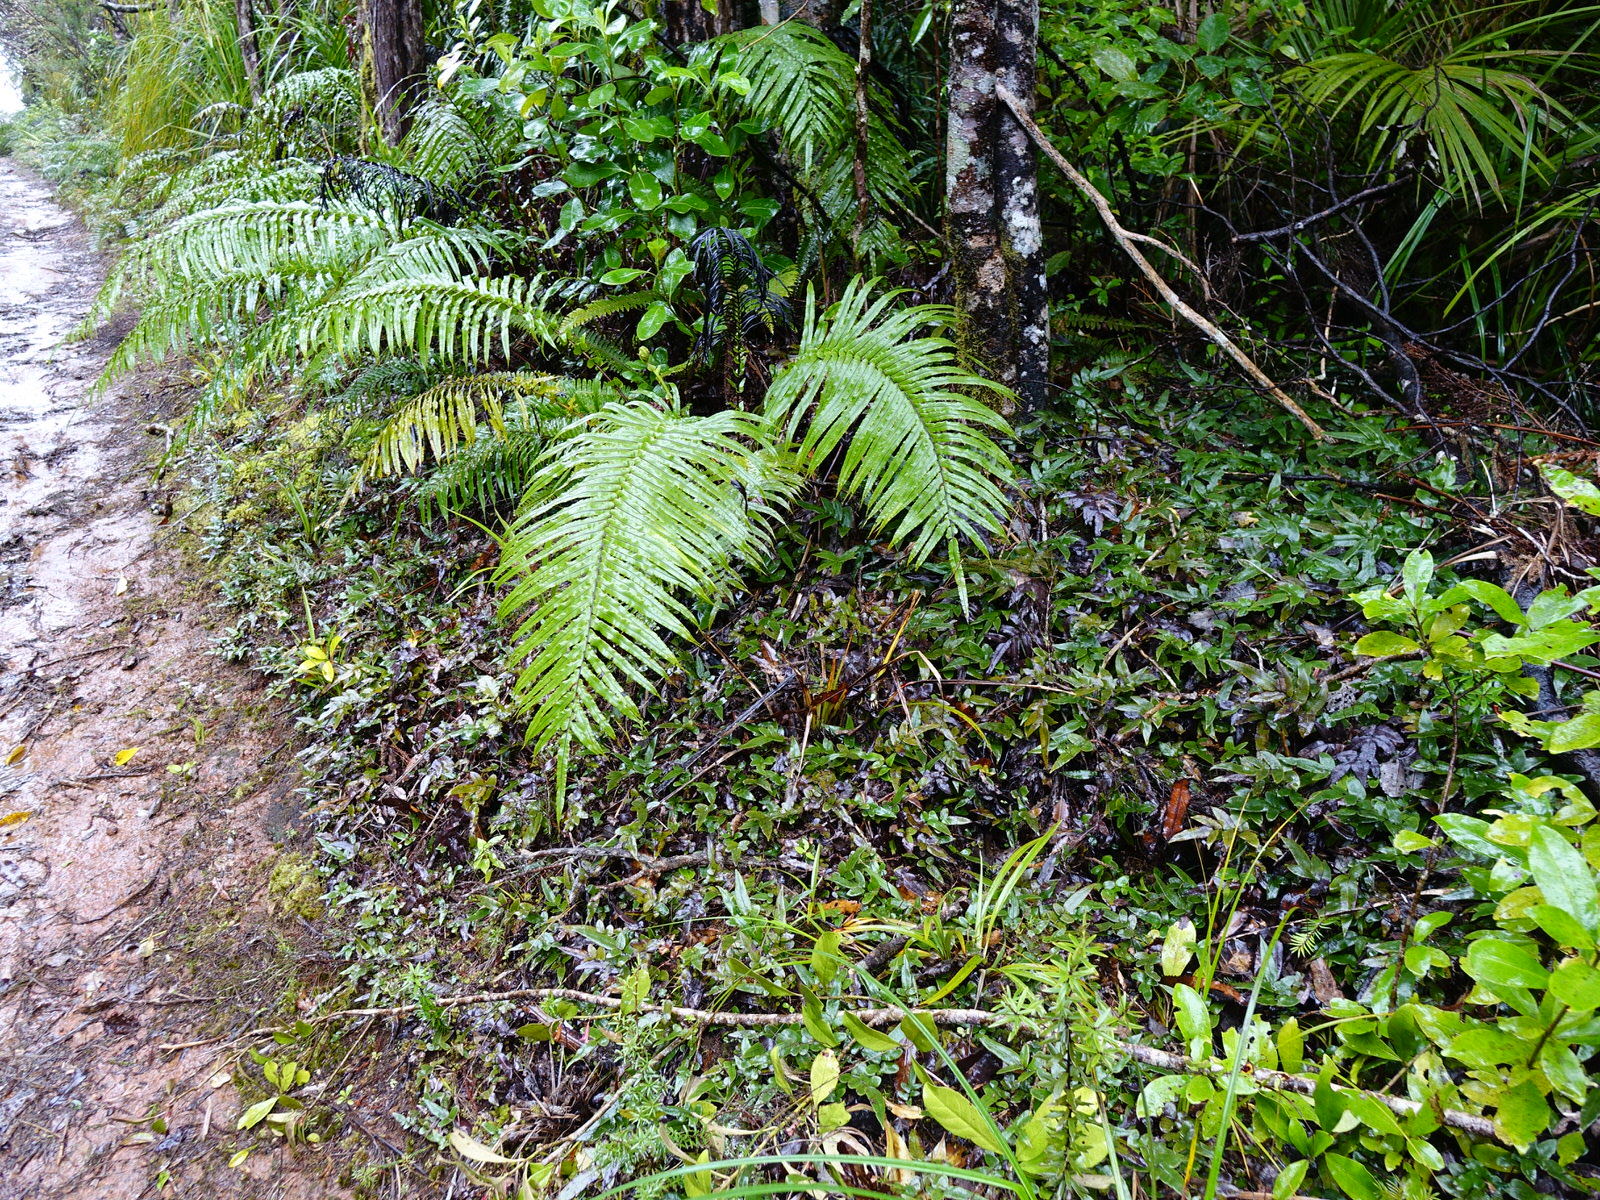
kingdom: Plantae
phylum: Tracheophyta
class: Polypodiopsida
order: Polypodiales
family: Blechnaceae
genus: Parablechnum
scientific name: Parablechnum procerum
